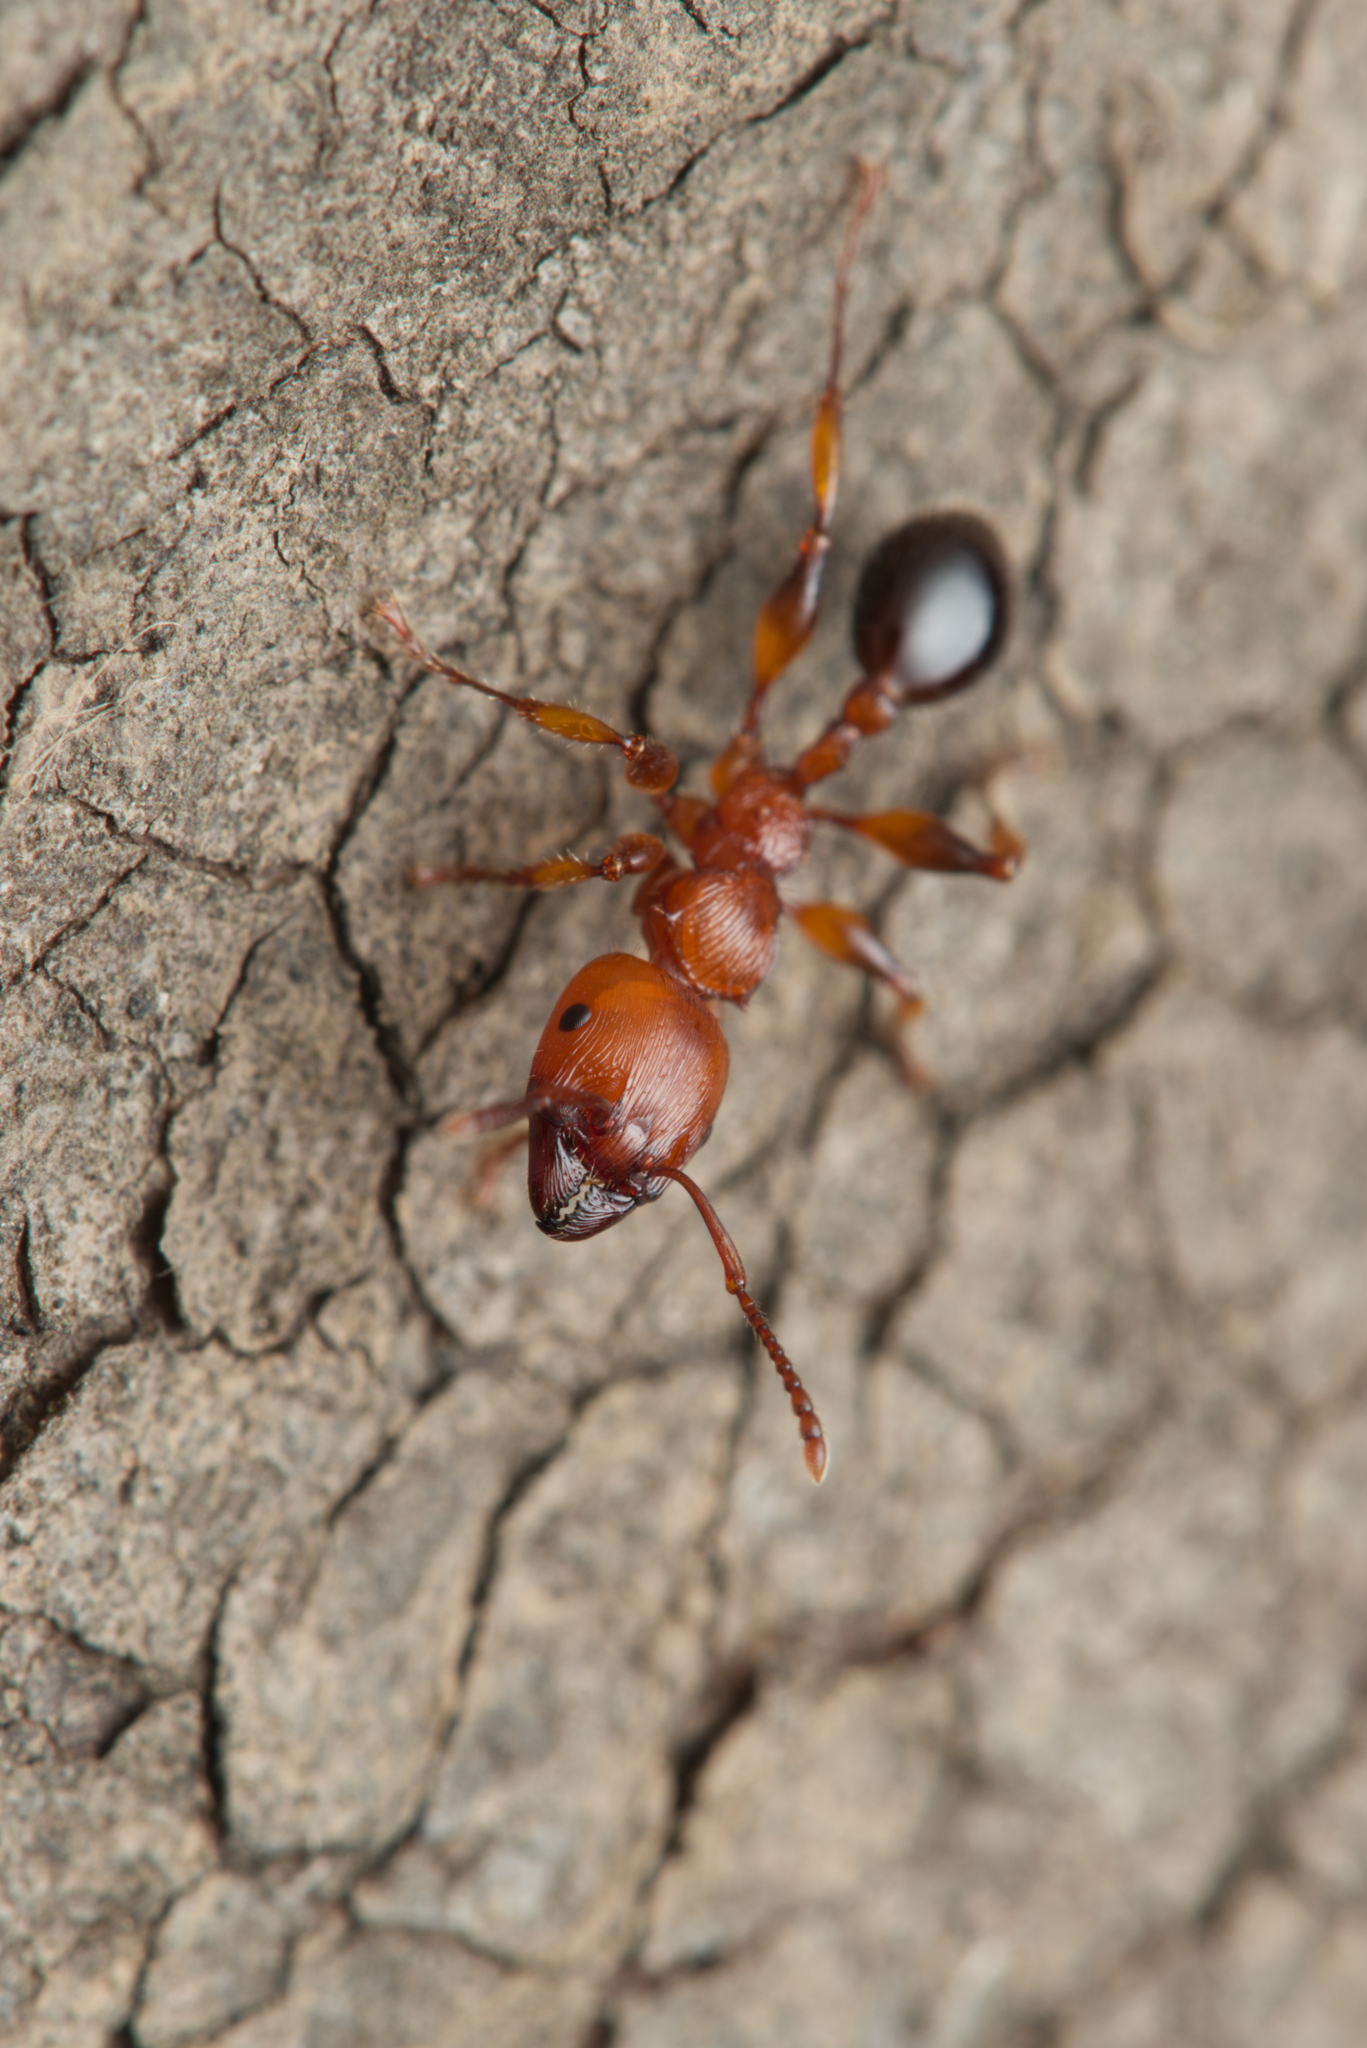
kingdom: Animalia
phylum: Arthropoda
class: Insecta
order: Hymenoptera
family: Formicidae
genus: Podomyrma
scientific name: Podomyrma gratiosa
